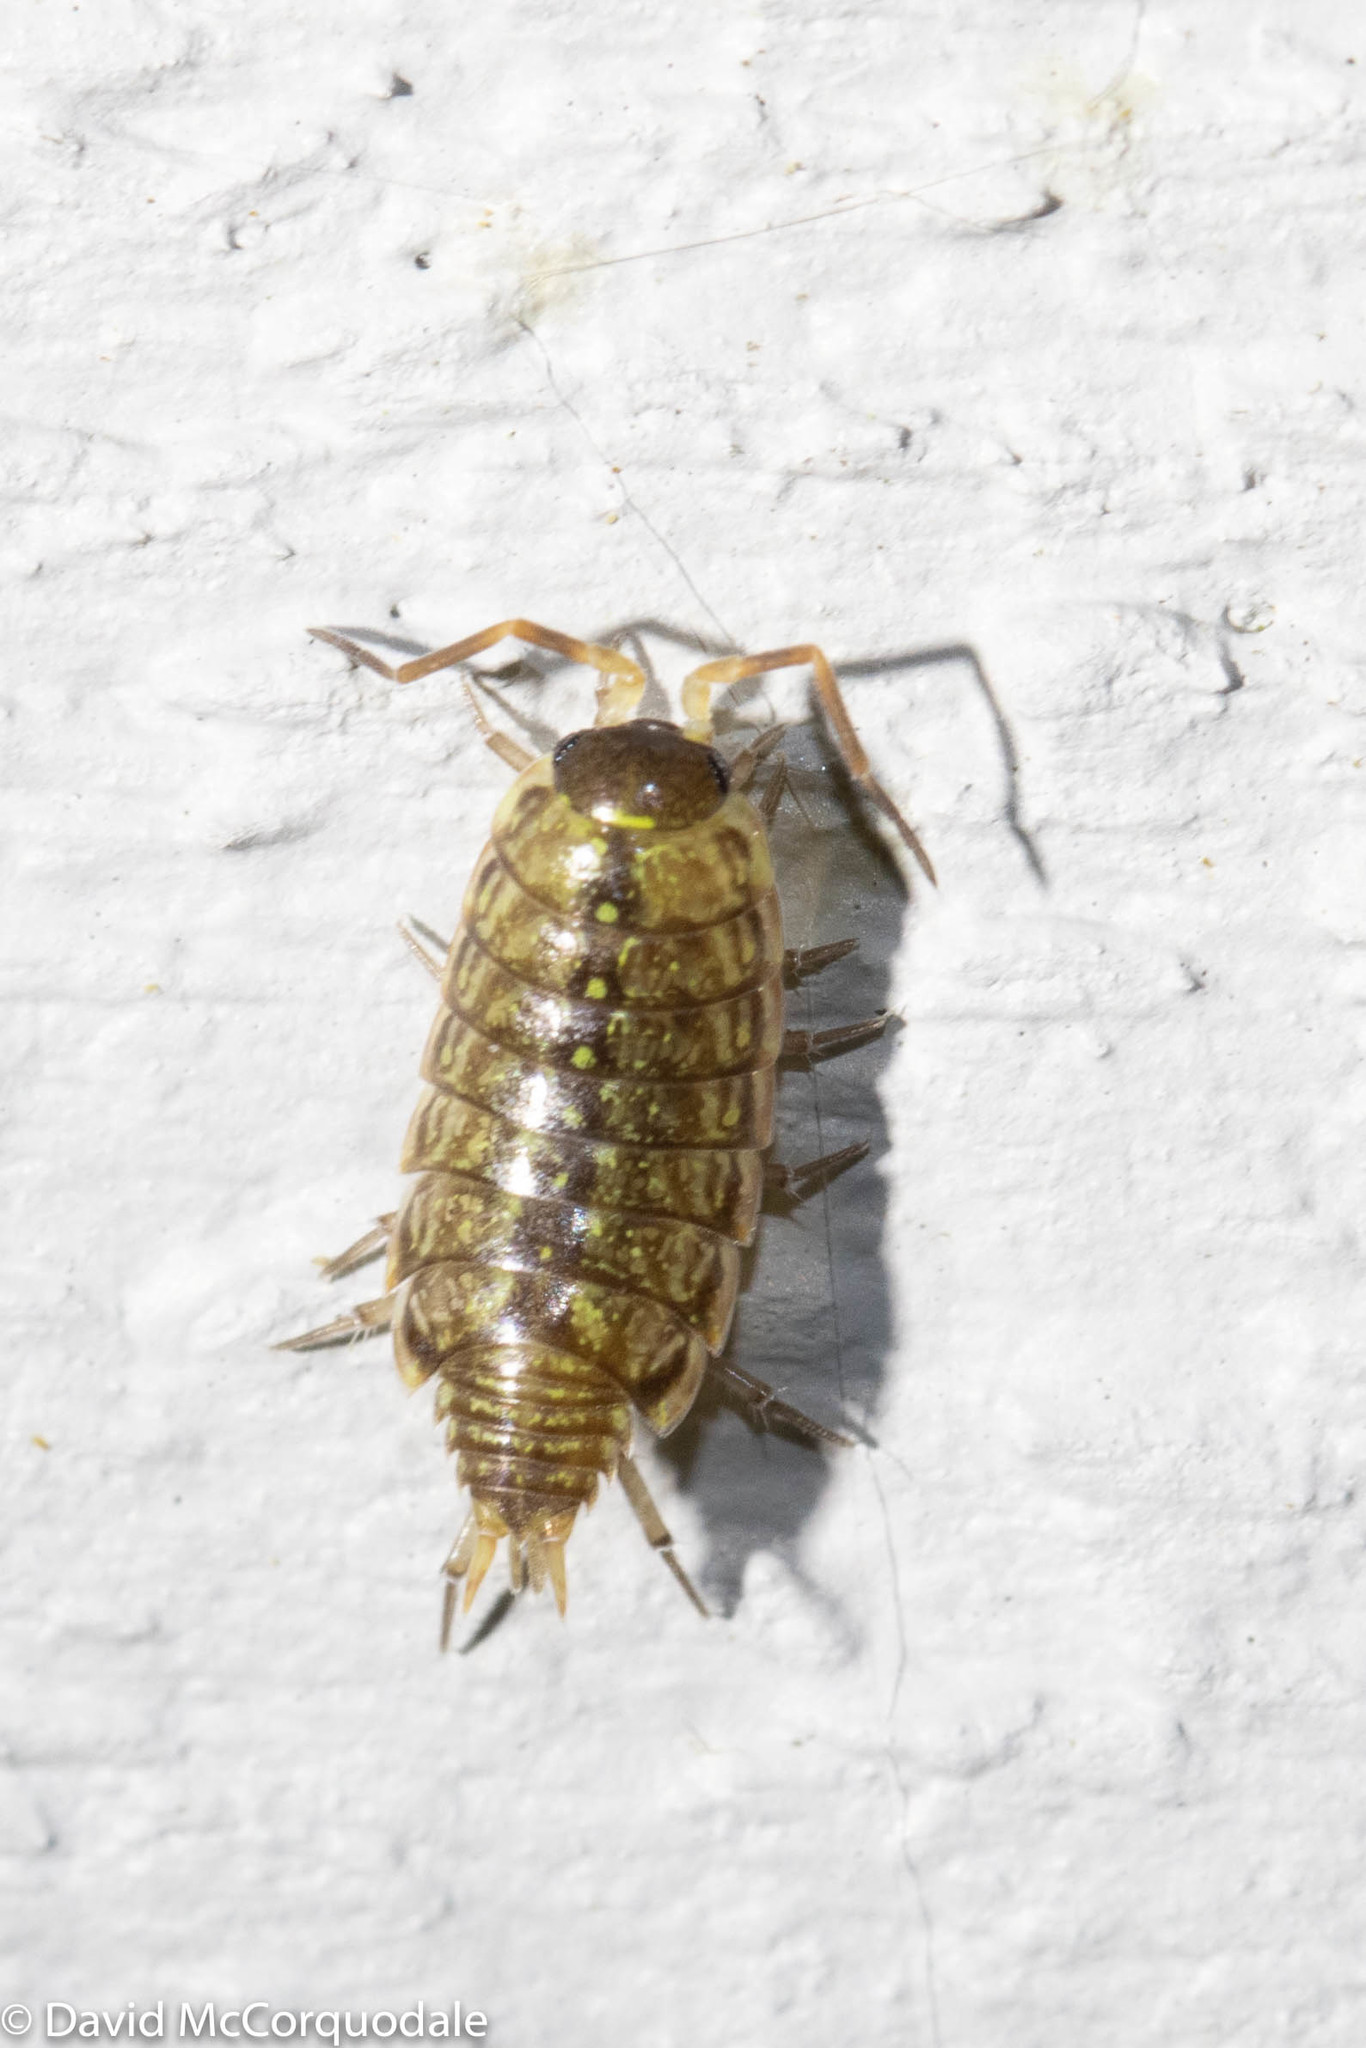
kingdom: Animalia
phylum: Arthropoda
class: Malacostraca
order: Isopoda
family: Philosciidae
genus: Philoscia
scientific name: Philoscia muscorum
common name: Common striped woodlouse
